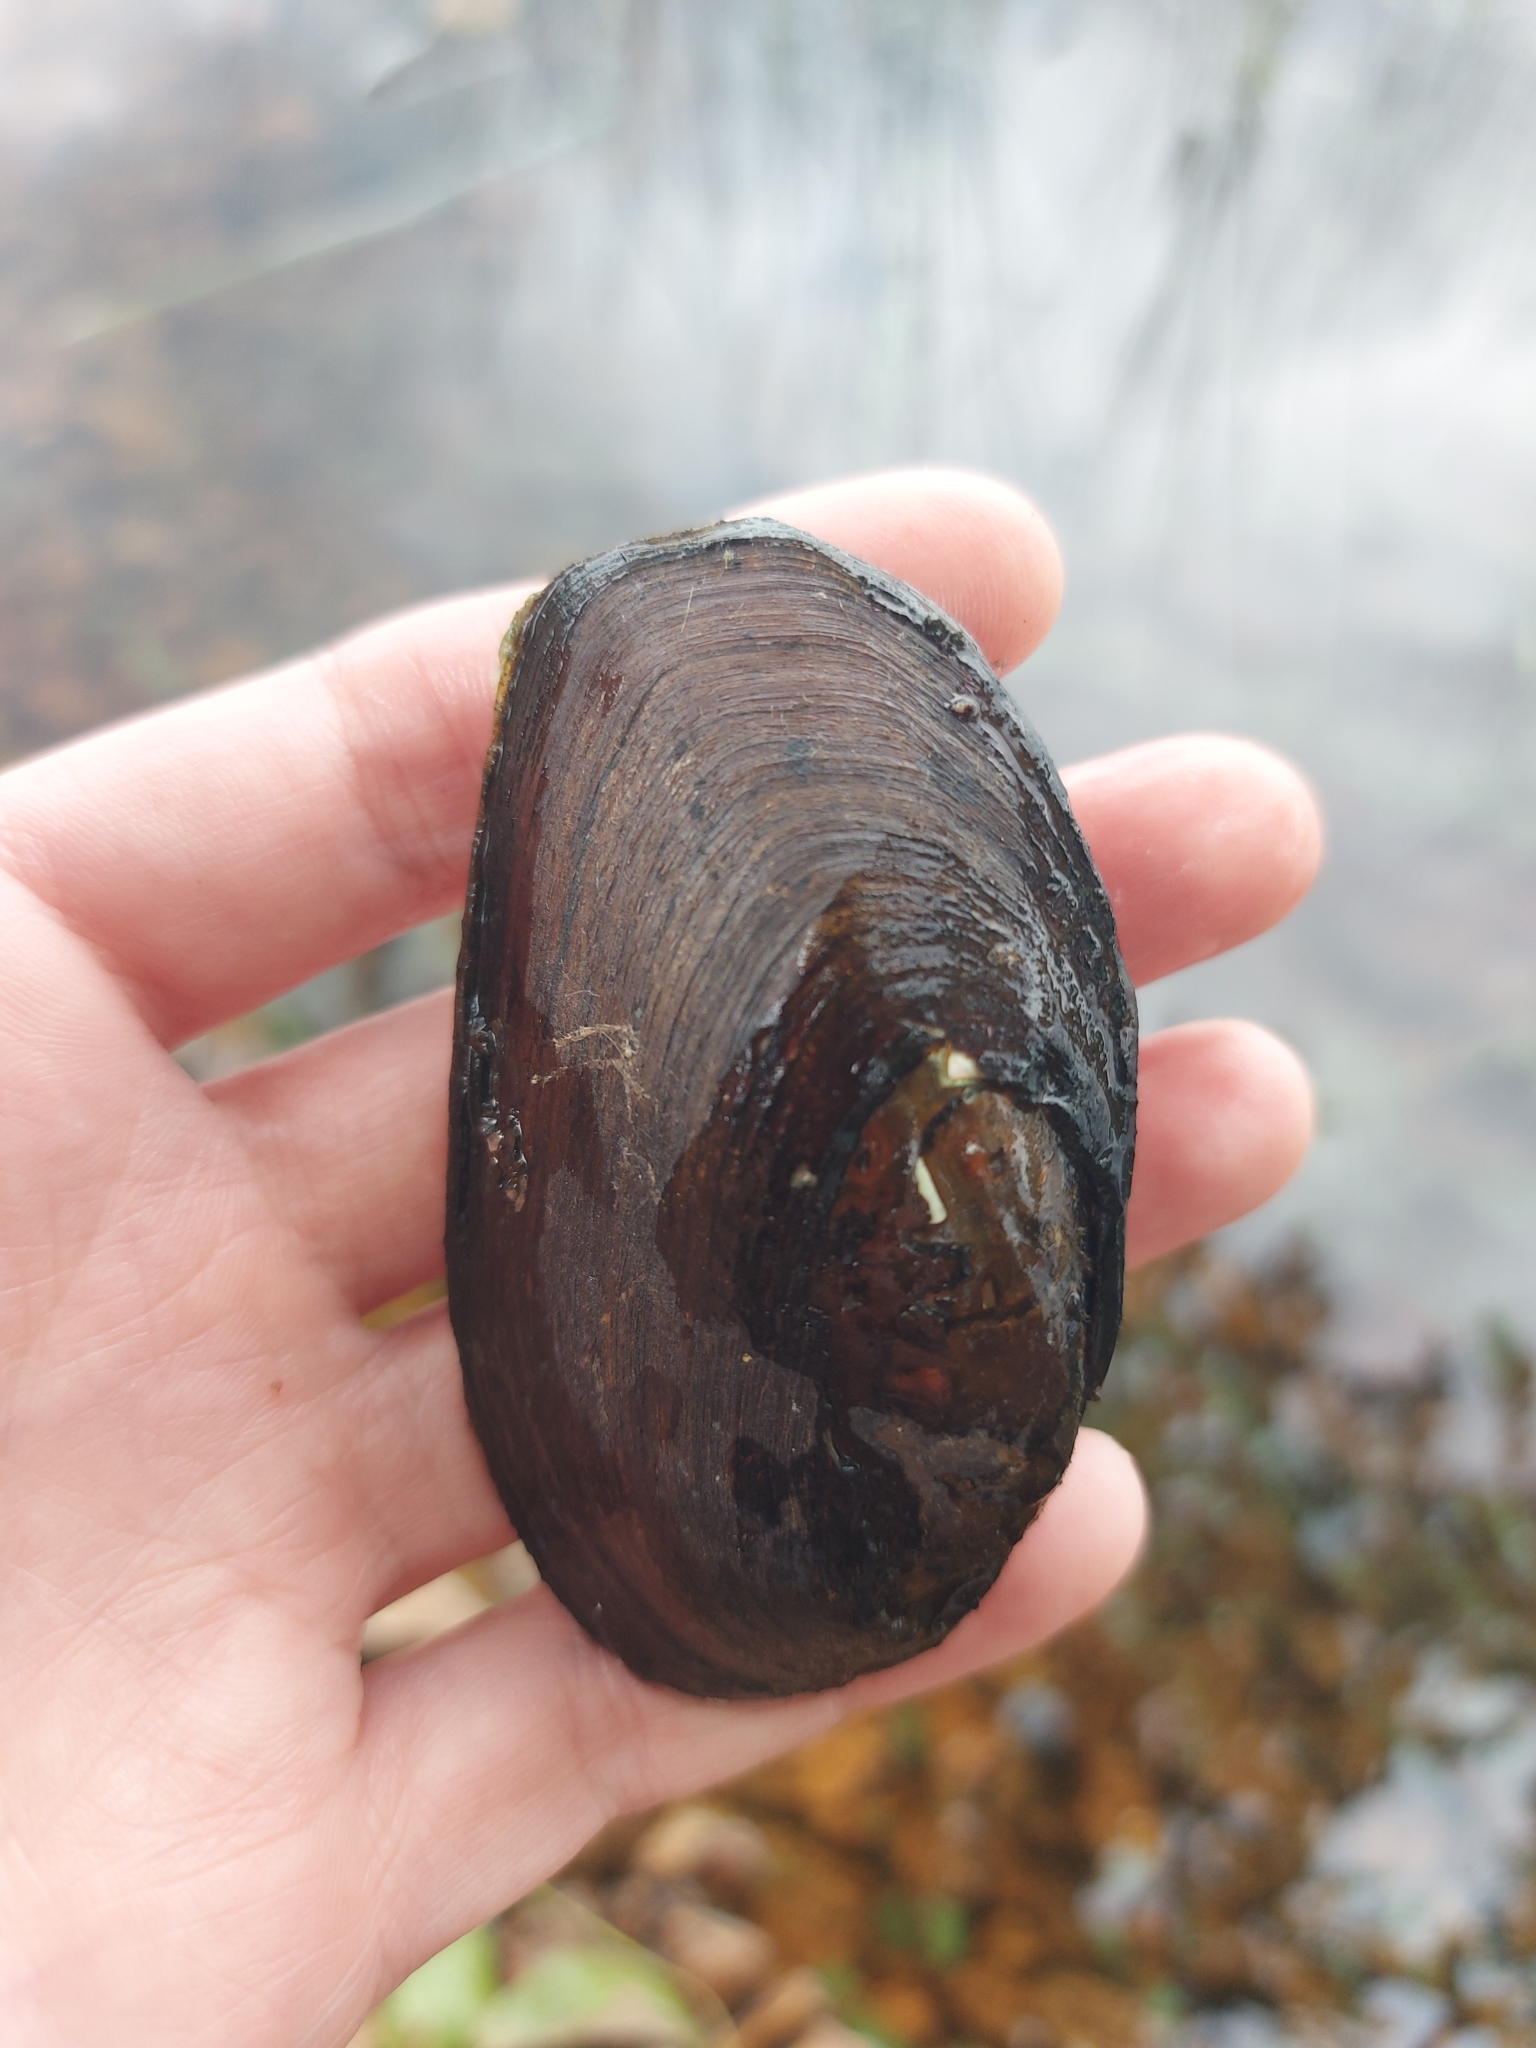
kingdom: Animalia
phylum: Mollusca
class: Bivalvia
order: Unionida
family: Unionidae
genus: Elliptio
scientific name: Elliptio complanata
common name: Eastern elliptio
